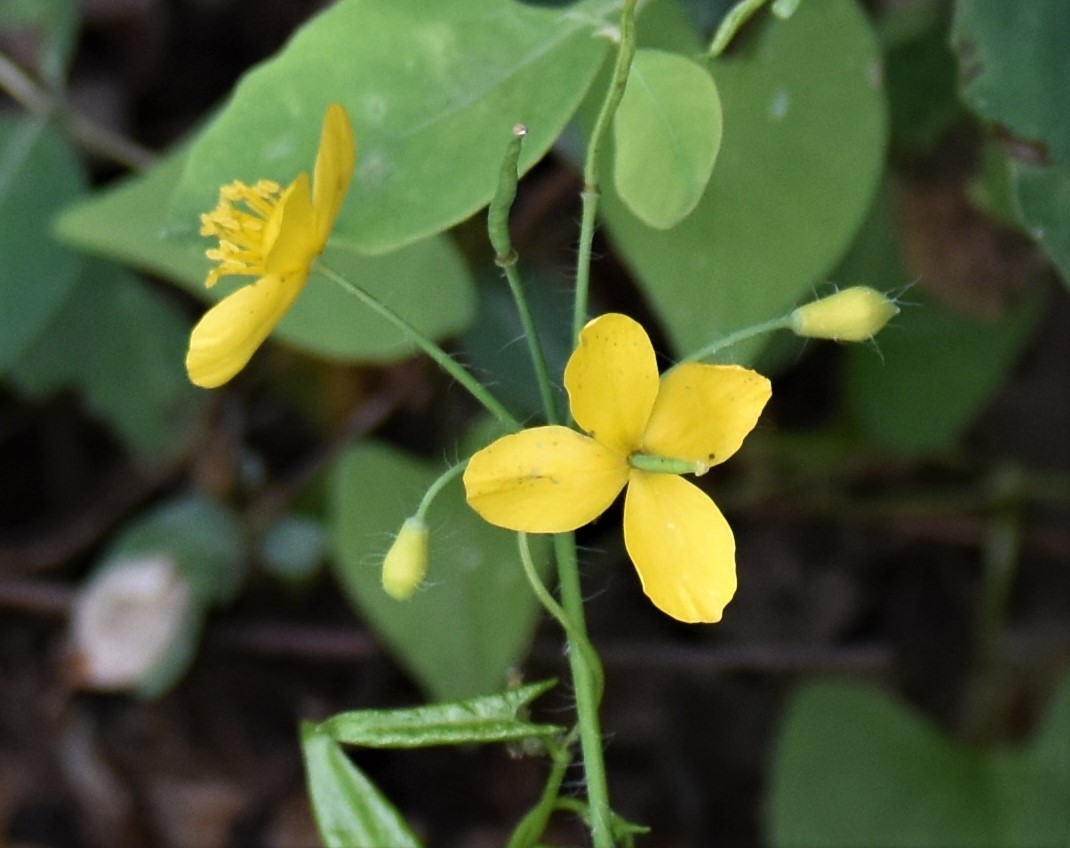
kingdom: Plantae
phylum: Tracheophyta
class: Magnoliopsida
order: Ranunculales
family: Papaveraceae
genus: Chelidonium
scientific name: Chelidonium majus
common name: Greater celandine
